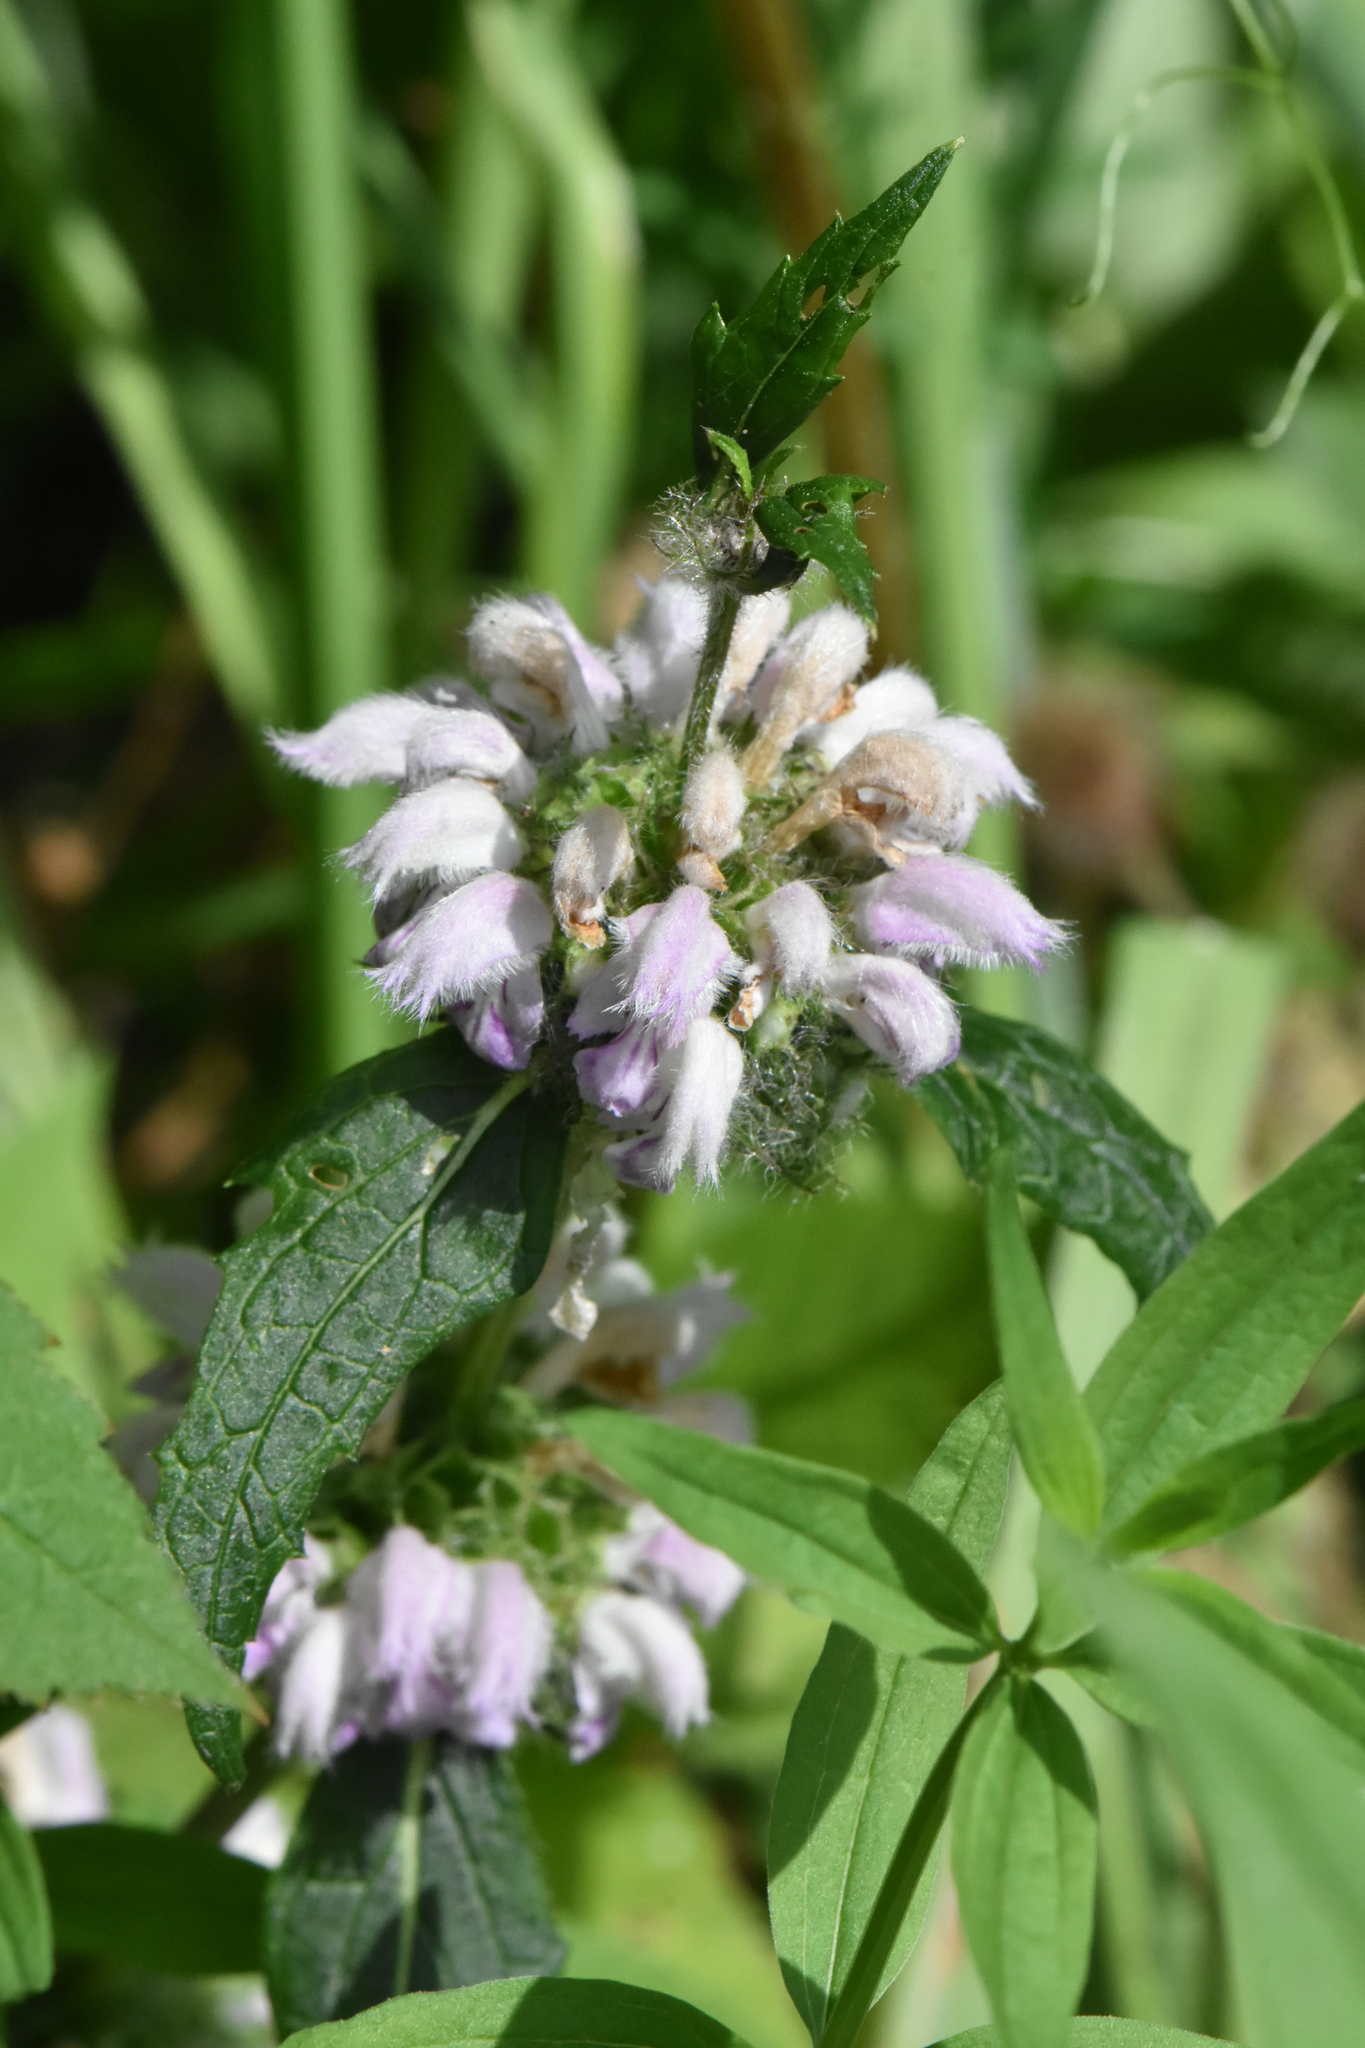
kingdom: Plantae
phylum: Tracheophyta
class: Magnoliopsida
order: Lamiales
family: Lamiaceae
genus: Phlomoides
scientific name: Phlomoides tuberosa
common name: Tuberous jerusalem sage
